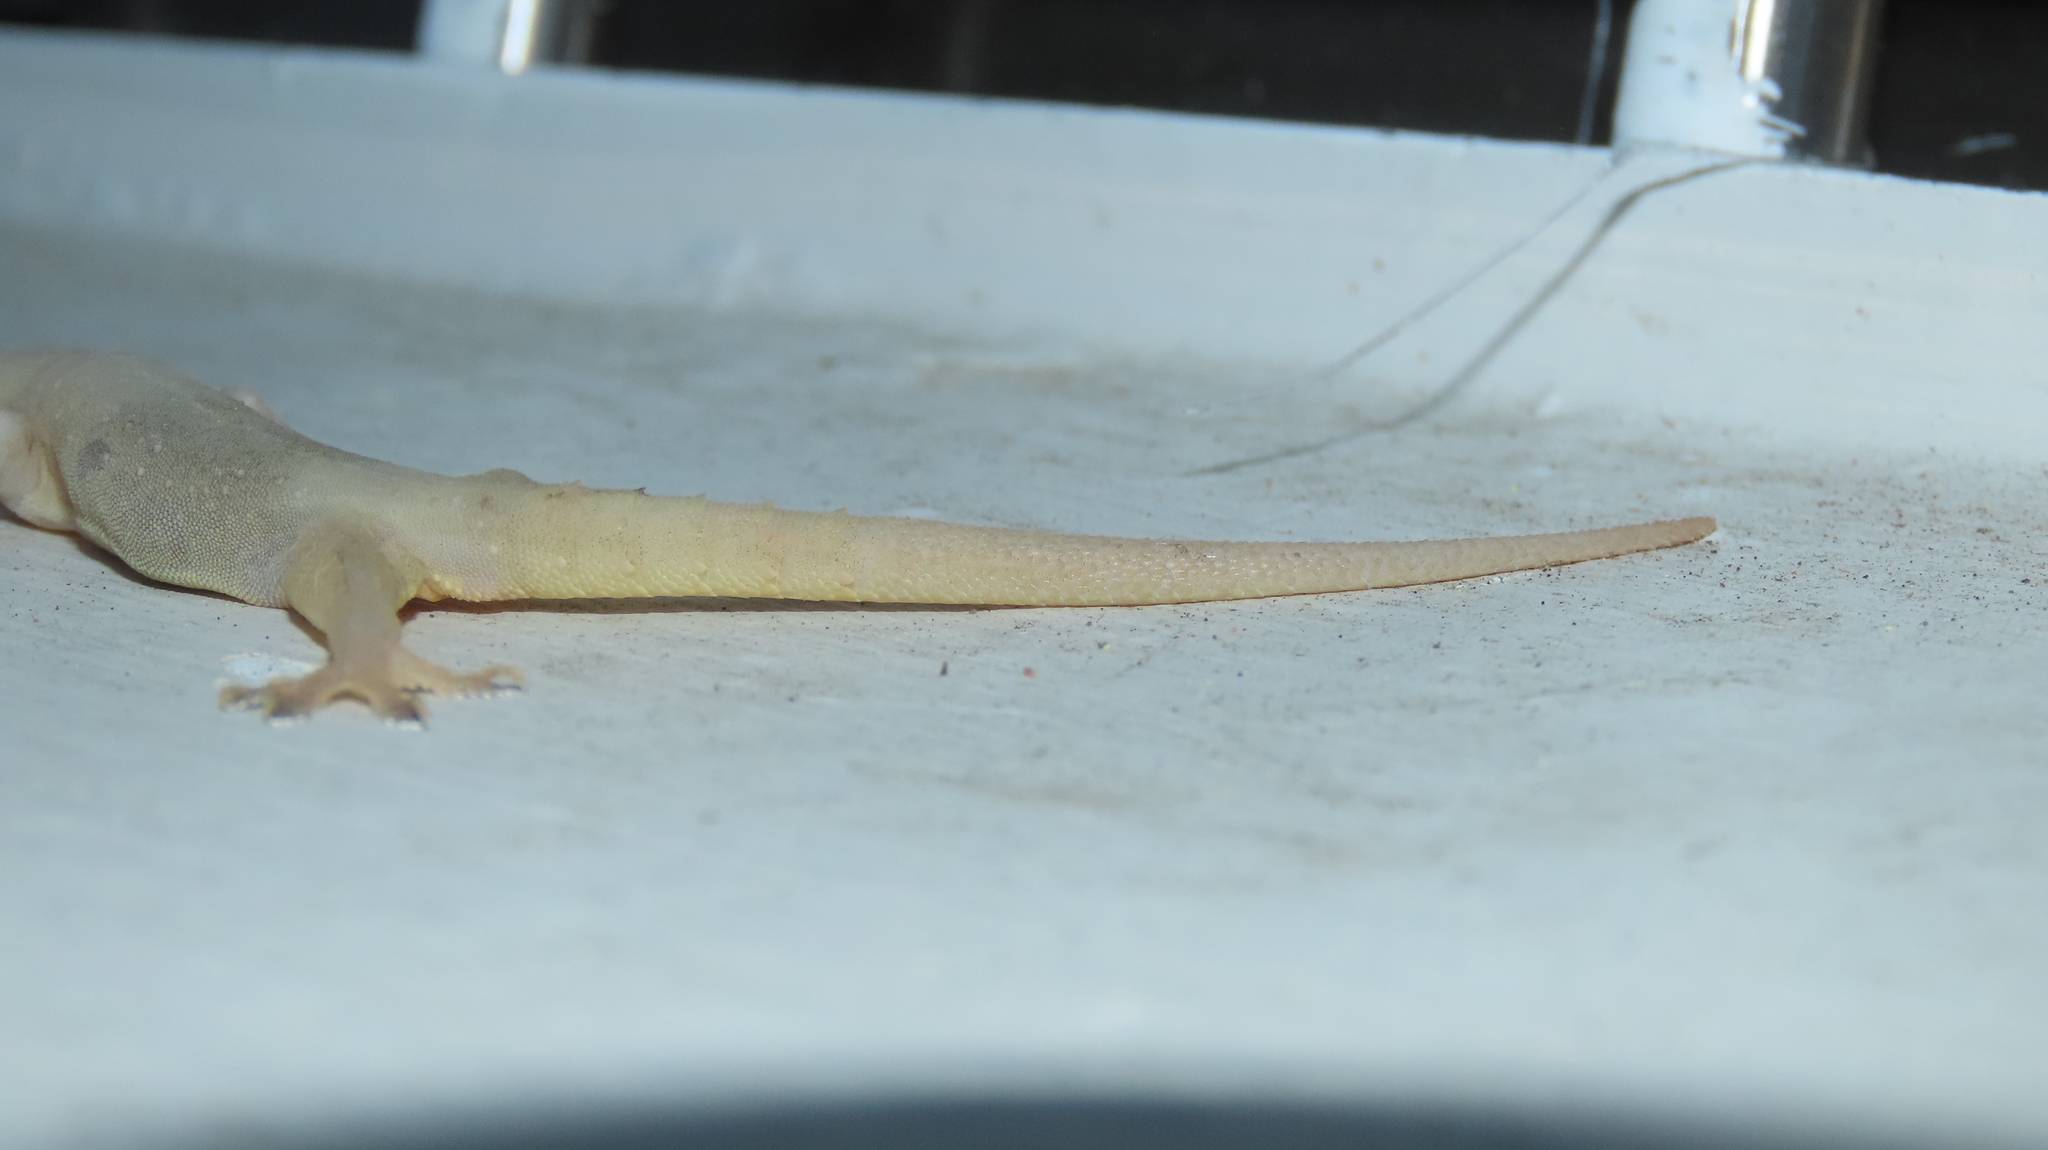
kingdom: Animalia
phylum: Chordata
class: Squamata
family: Gekkonidae
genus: Hemidactylus
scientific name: Hemidactylus frenatus
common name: Common house gecko
